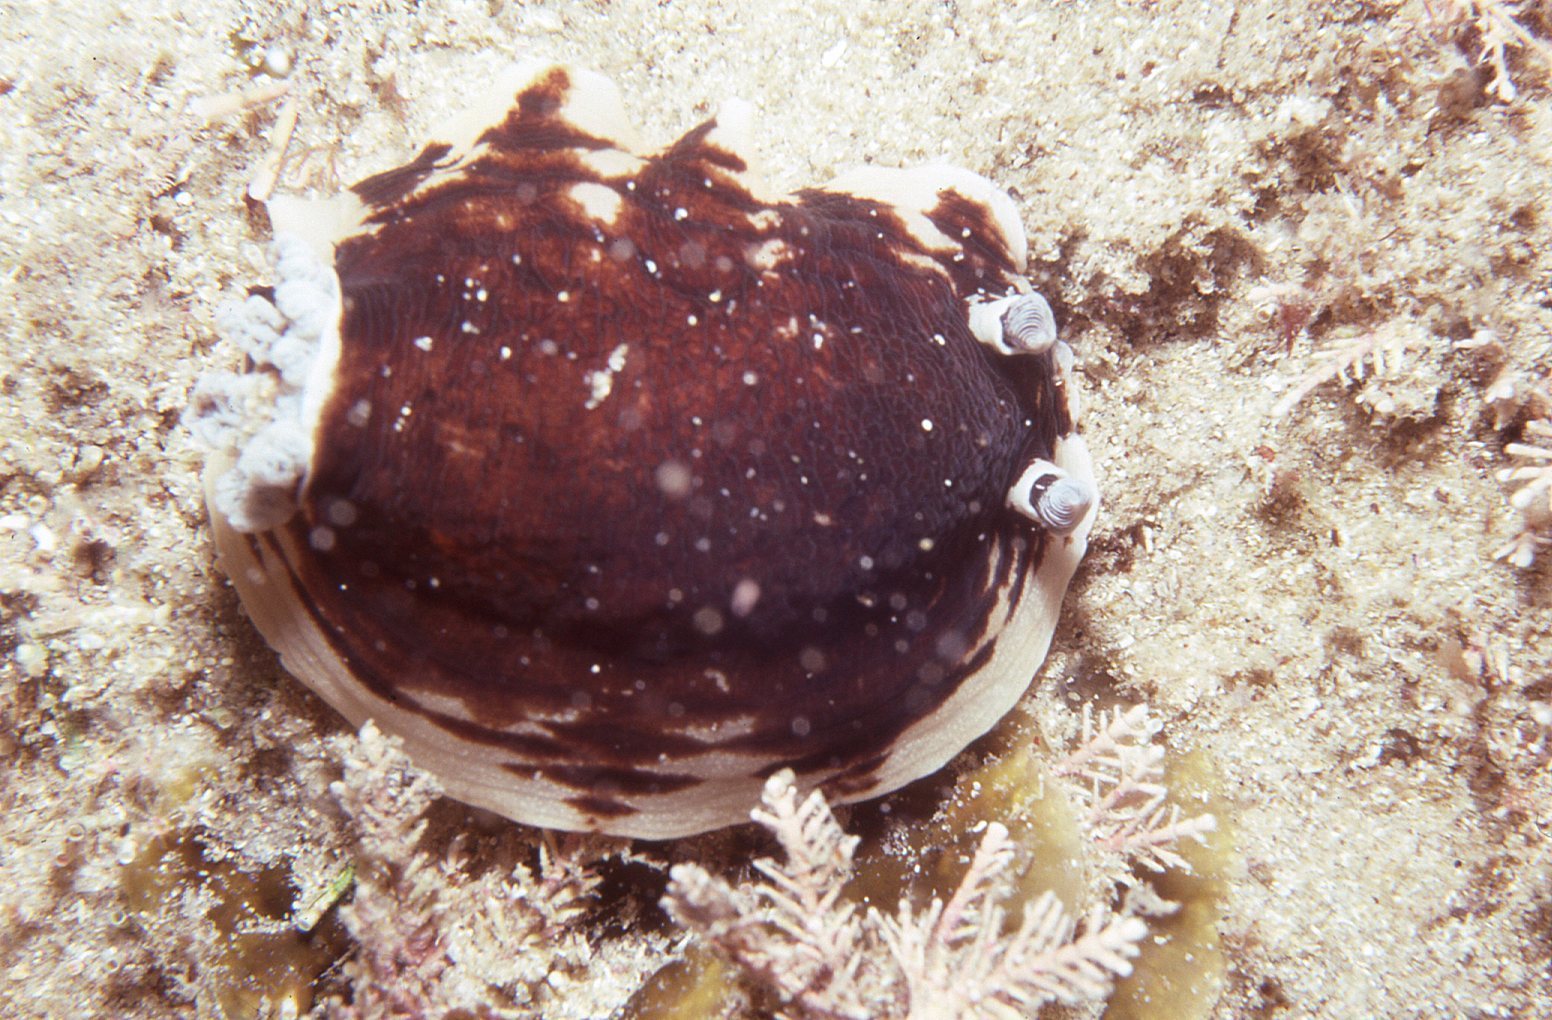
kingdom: Animalia
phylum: Mollusca
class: Gastropoda
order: Nudibranchia
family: Dorididae
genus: Aphelodoris
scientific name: Aphelodoris varia
